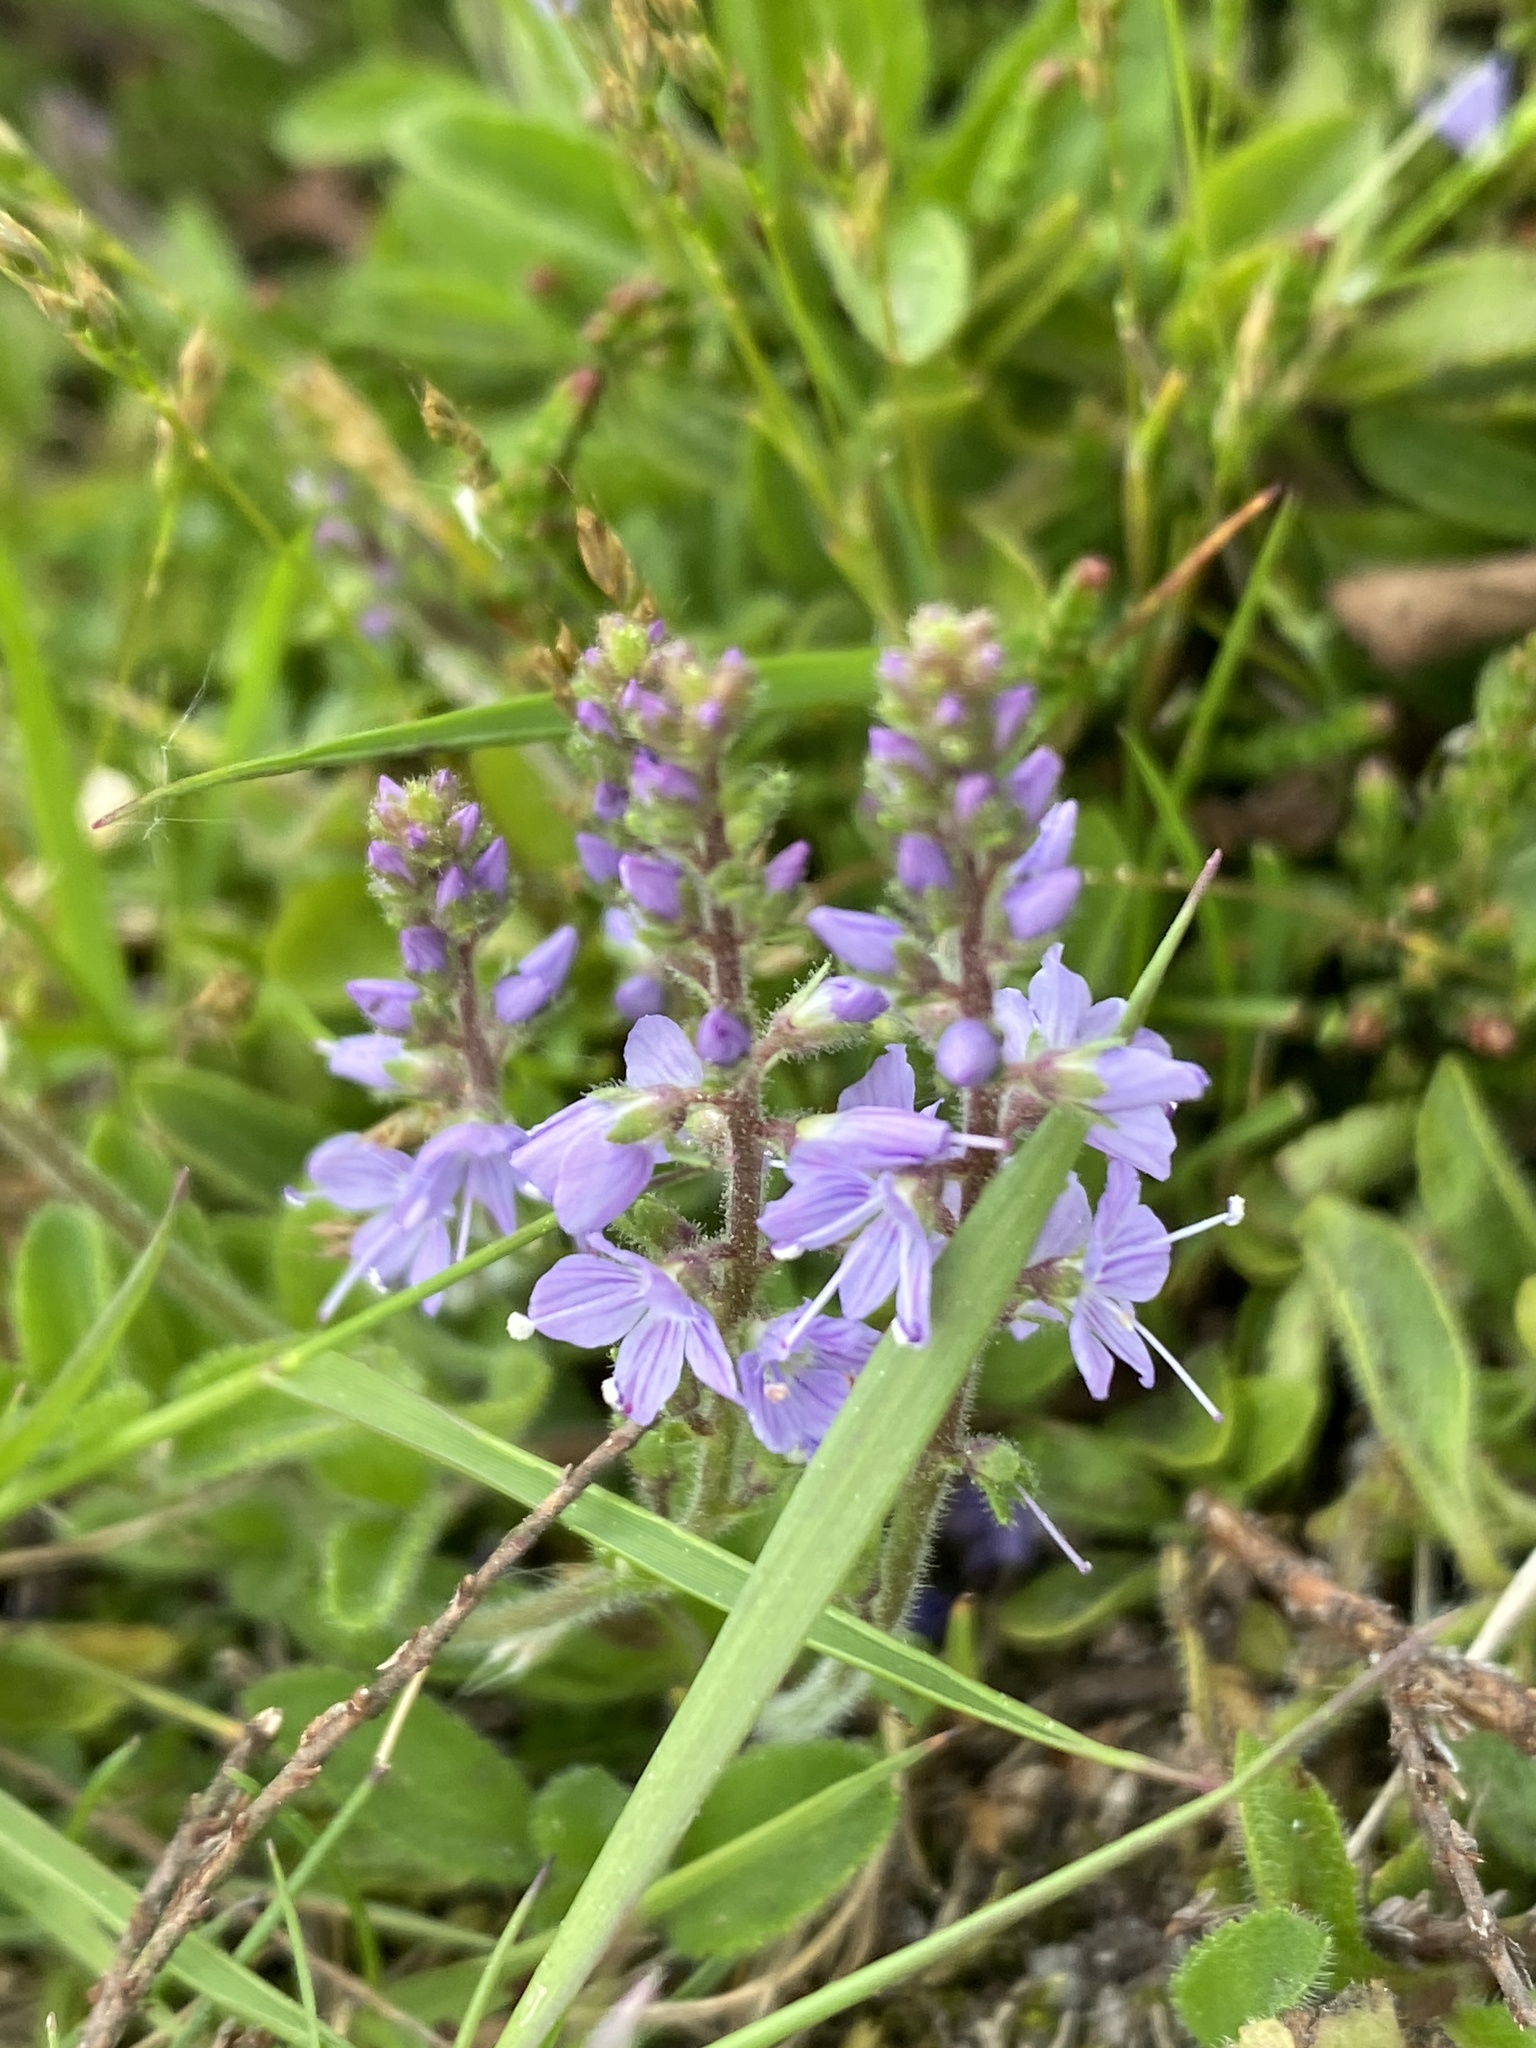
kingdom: Plantae
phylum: Tracheophyta
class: Magnoliopsida
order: Lamiales
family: Plantaginaceae
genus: Veronica
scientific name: Veronica officinalis
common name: Common speedwell
